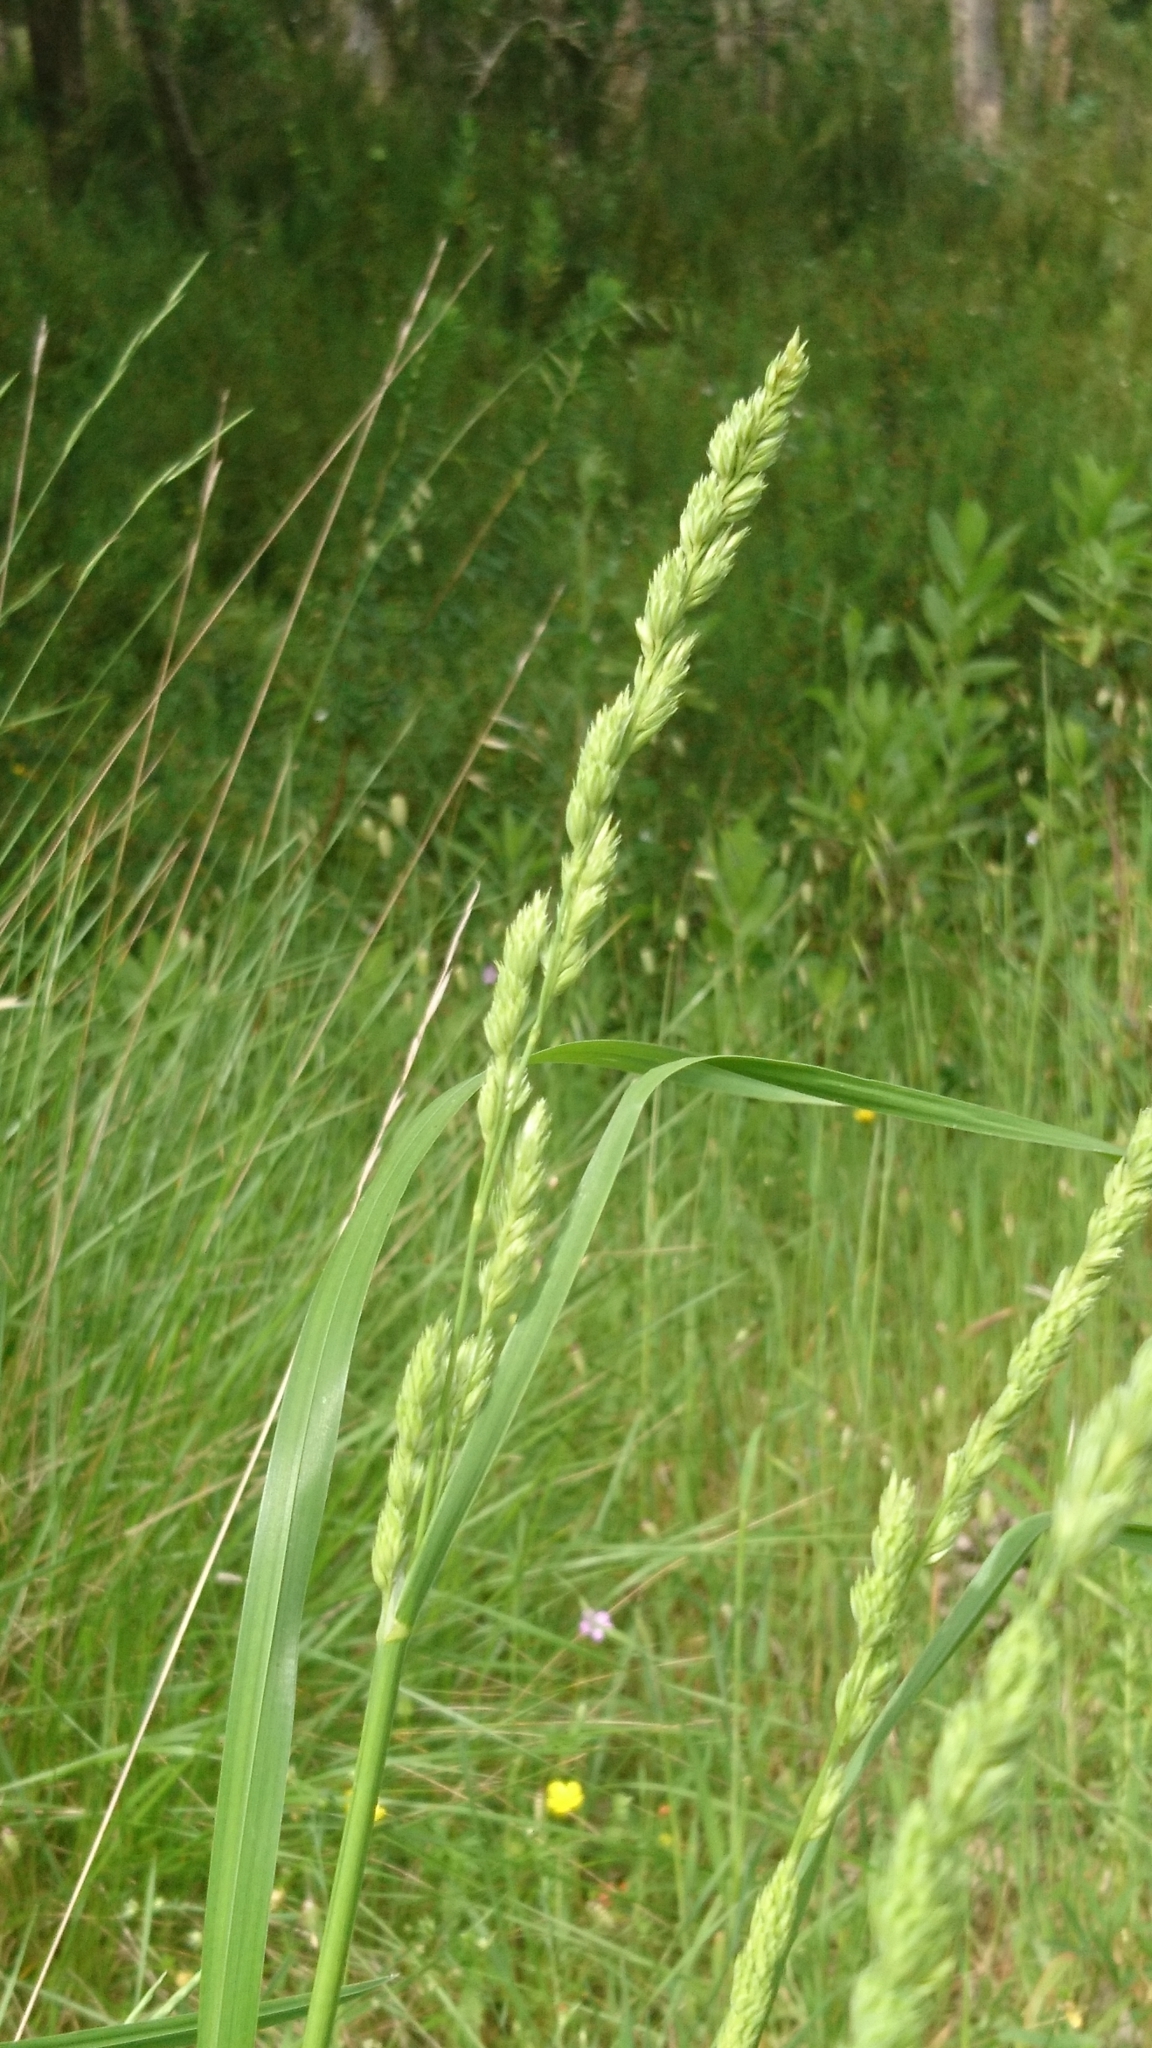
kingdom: Plantae
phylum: Tracheophyta
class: Liliopsida
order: Poales
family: Poaceae
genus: Dactylis
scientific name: Dactylis glomerata
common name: Orchardgrass
